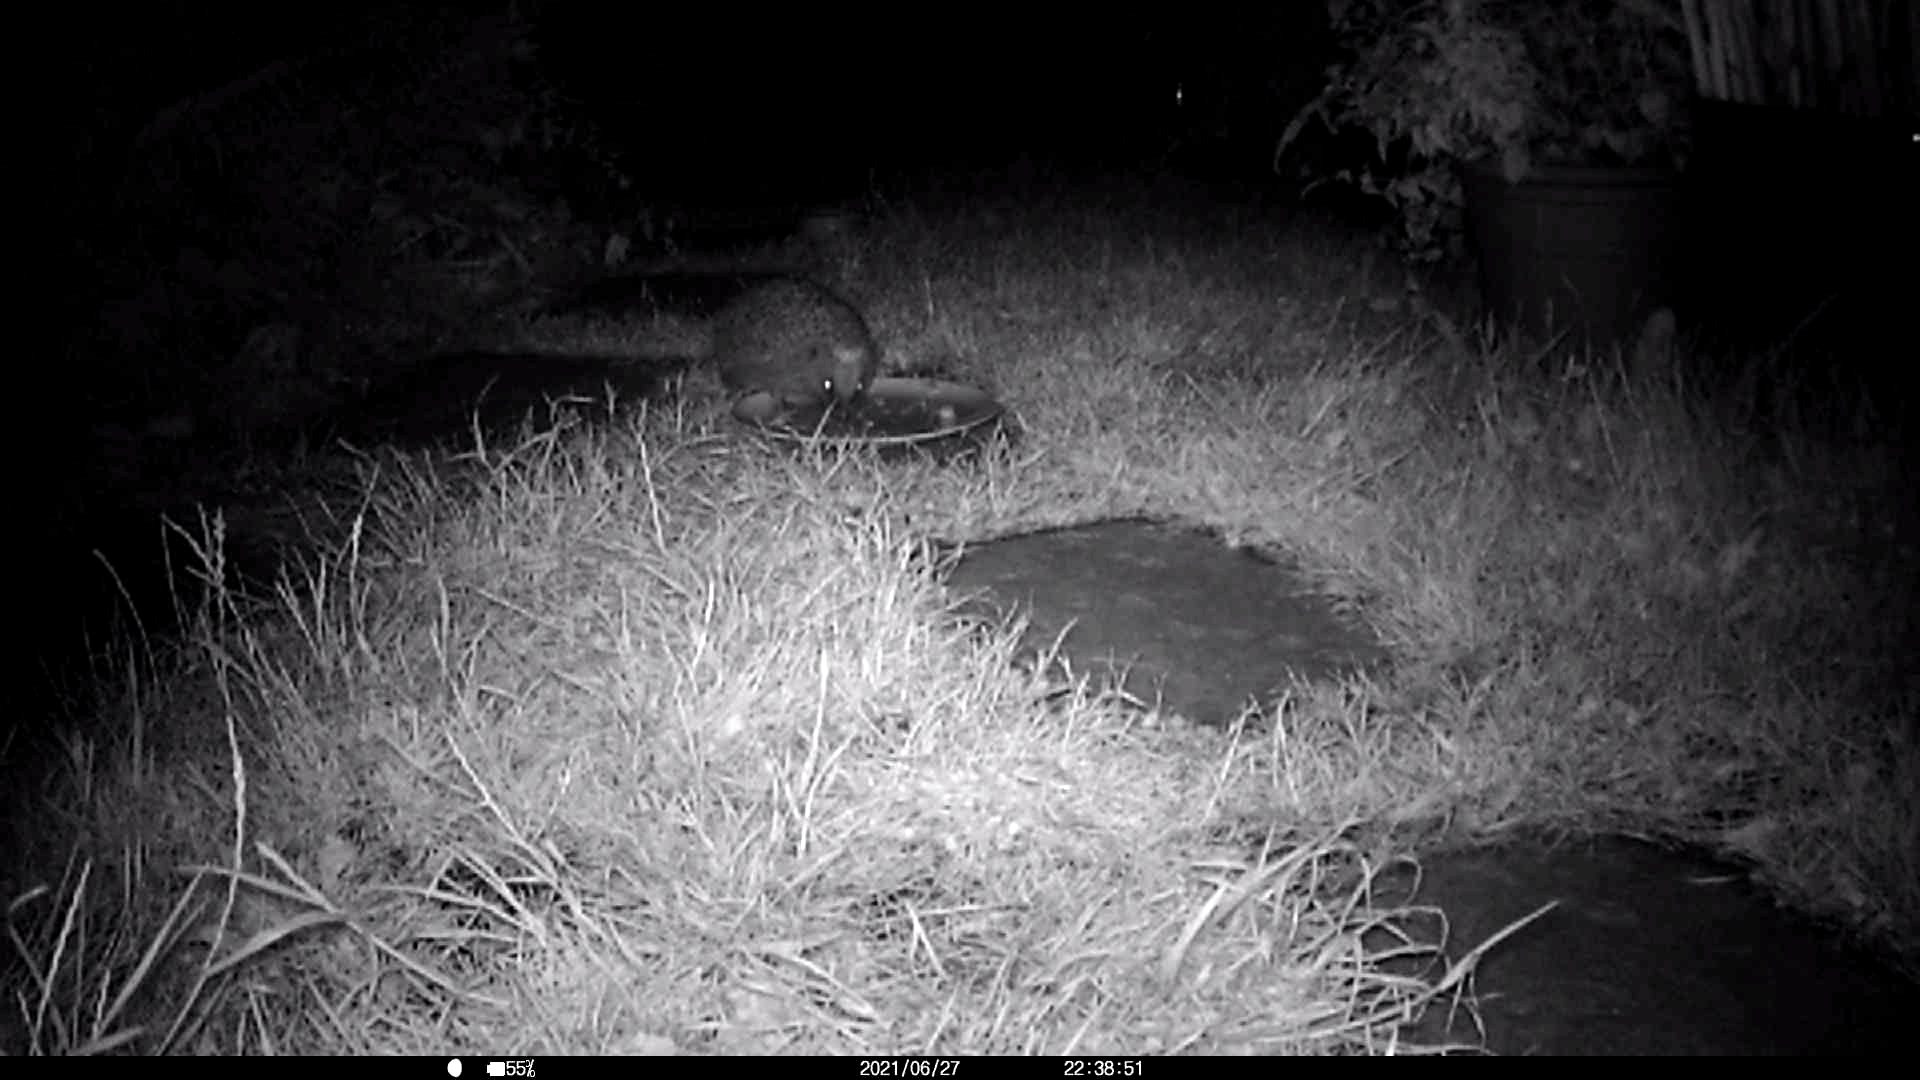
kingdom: Animalia
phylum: Chordata
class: Mammalia
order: Erinaceomorpha
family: Erinaceidae
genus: Erinaceus
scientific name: Erinaceus europaeus
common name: West european hedgehog
